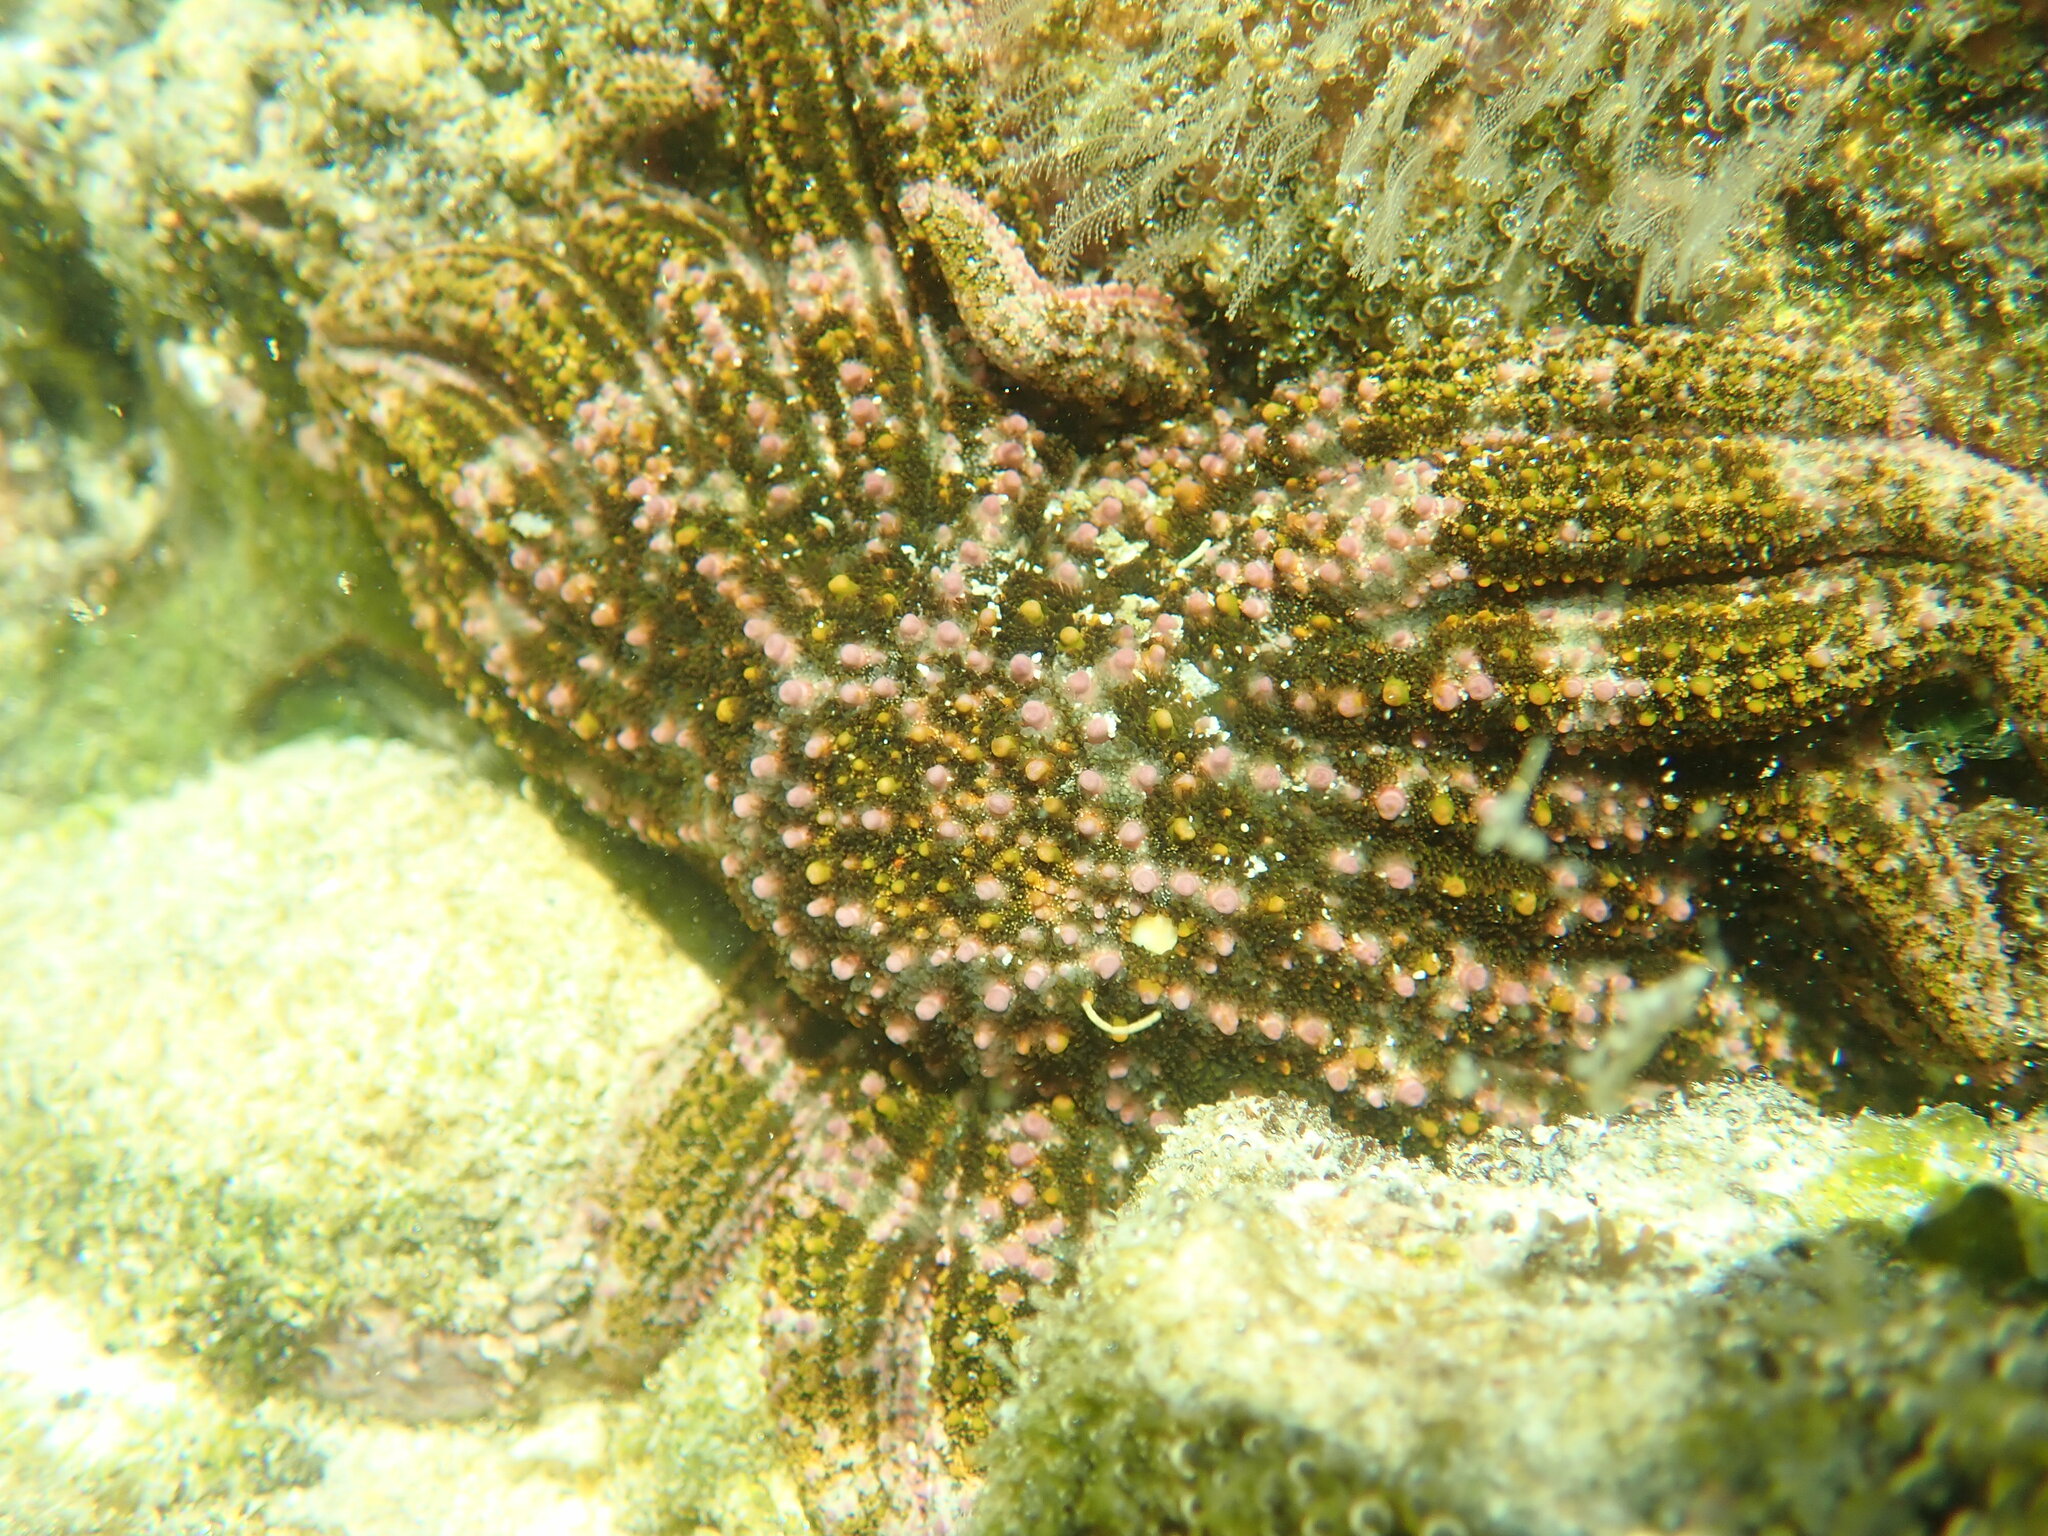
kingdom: Animalia
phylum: Echinodermata
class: Asteroidea
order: Forcipulatida
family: Heliasteridae
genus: Heliaster
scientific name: Heliaster kubiniji
